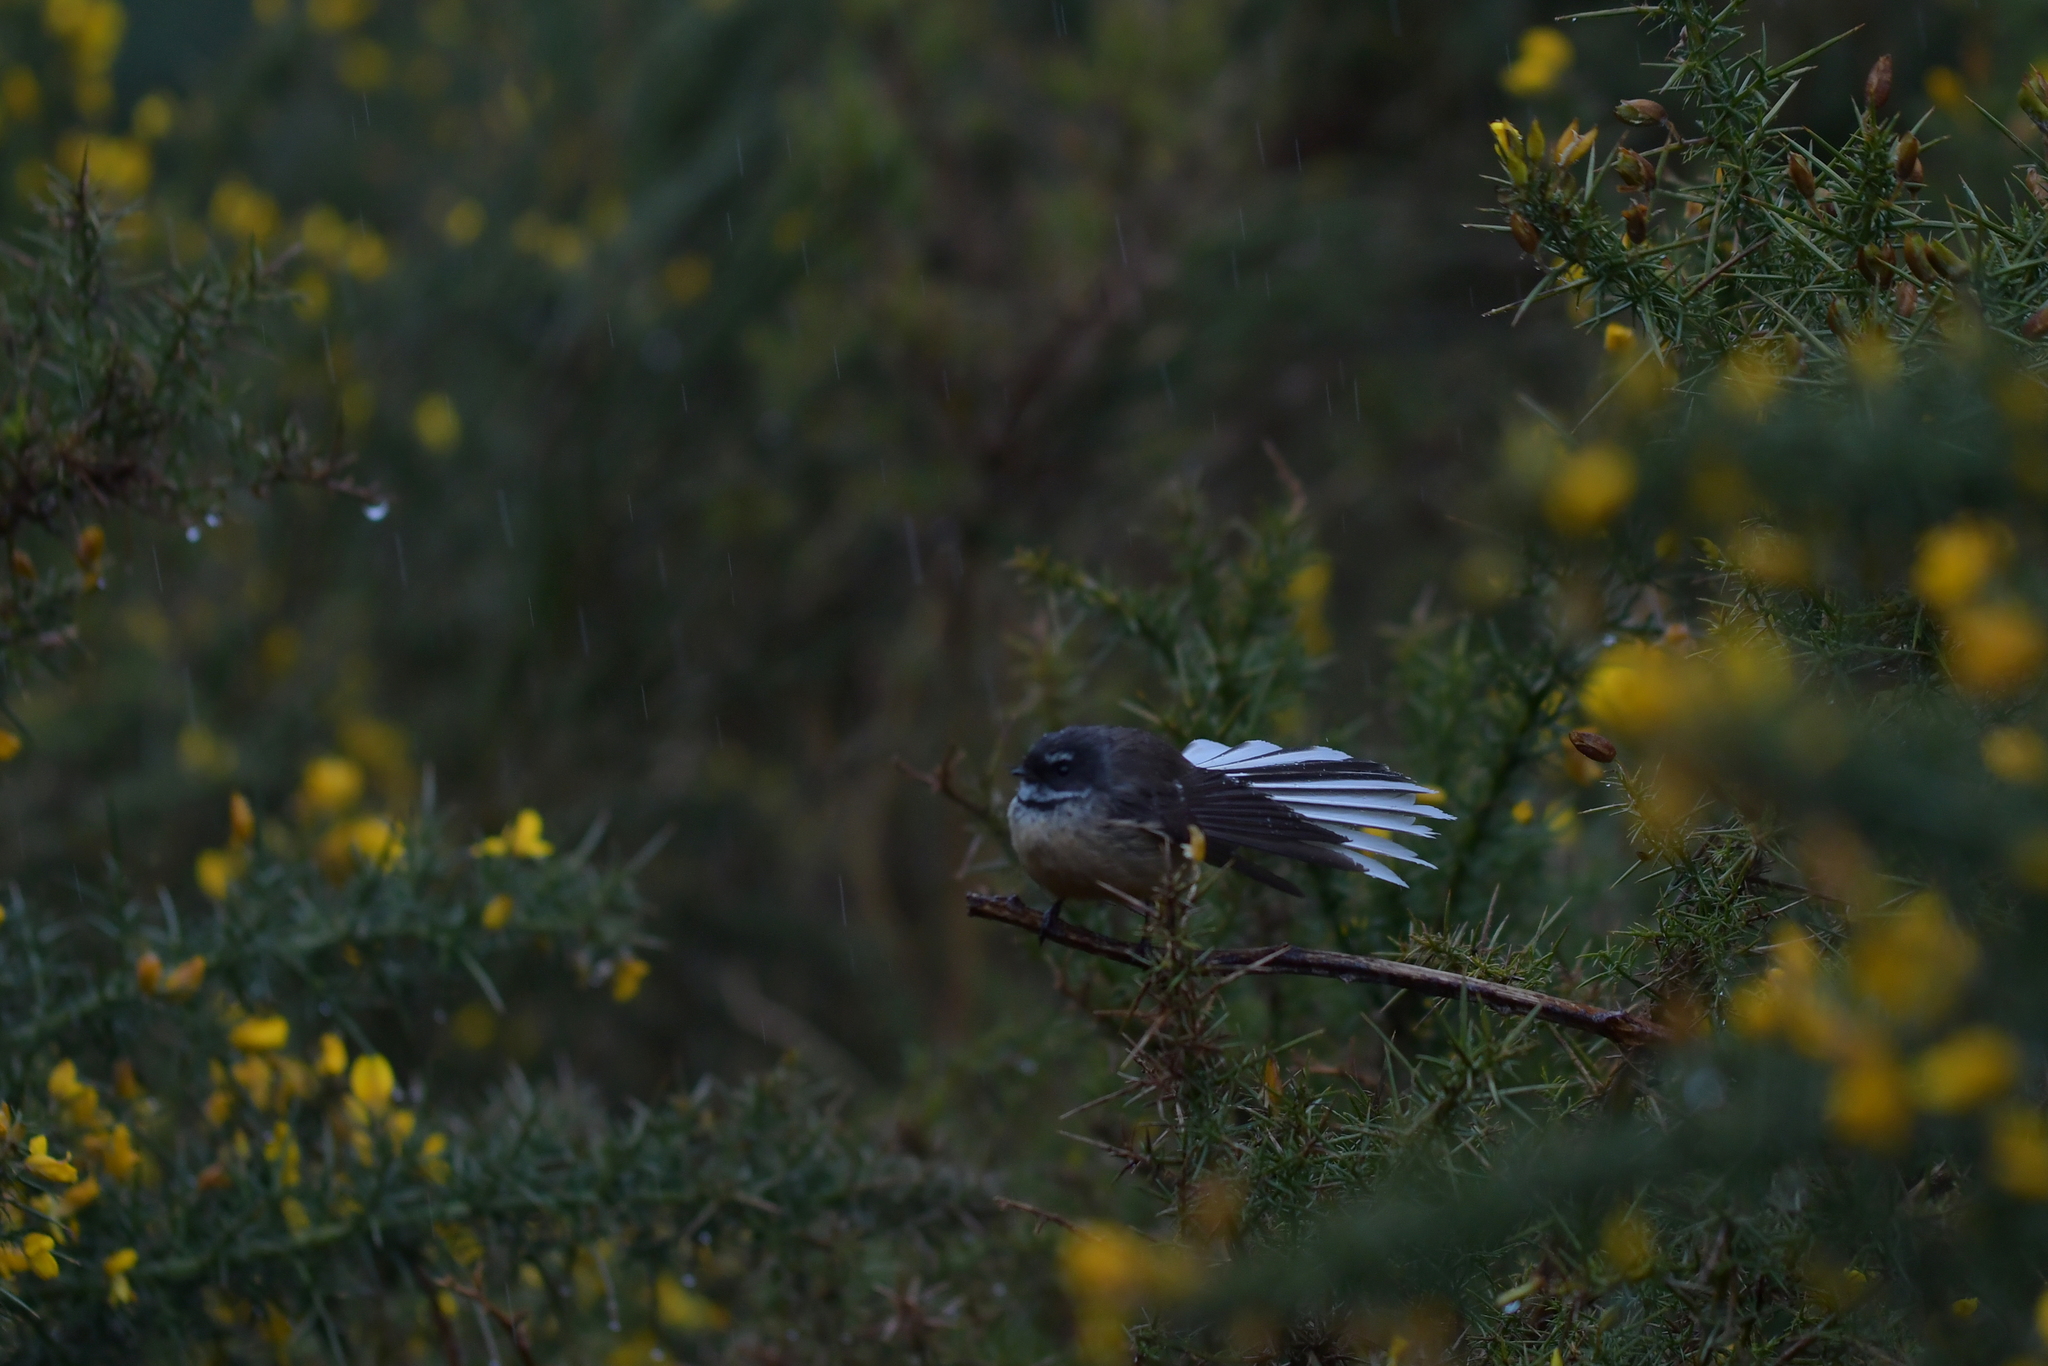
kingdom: Animalia
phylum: Chordata
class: Aves
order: Passeriformes
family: Rhipiduridae
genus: Rhipidura
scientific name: Rhipidura fuliginosa
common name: New zealand fantail
